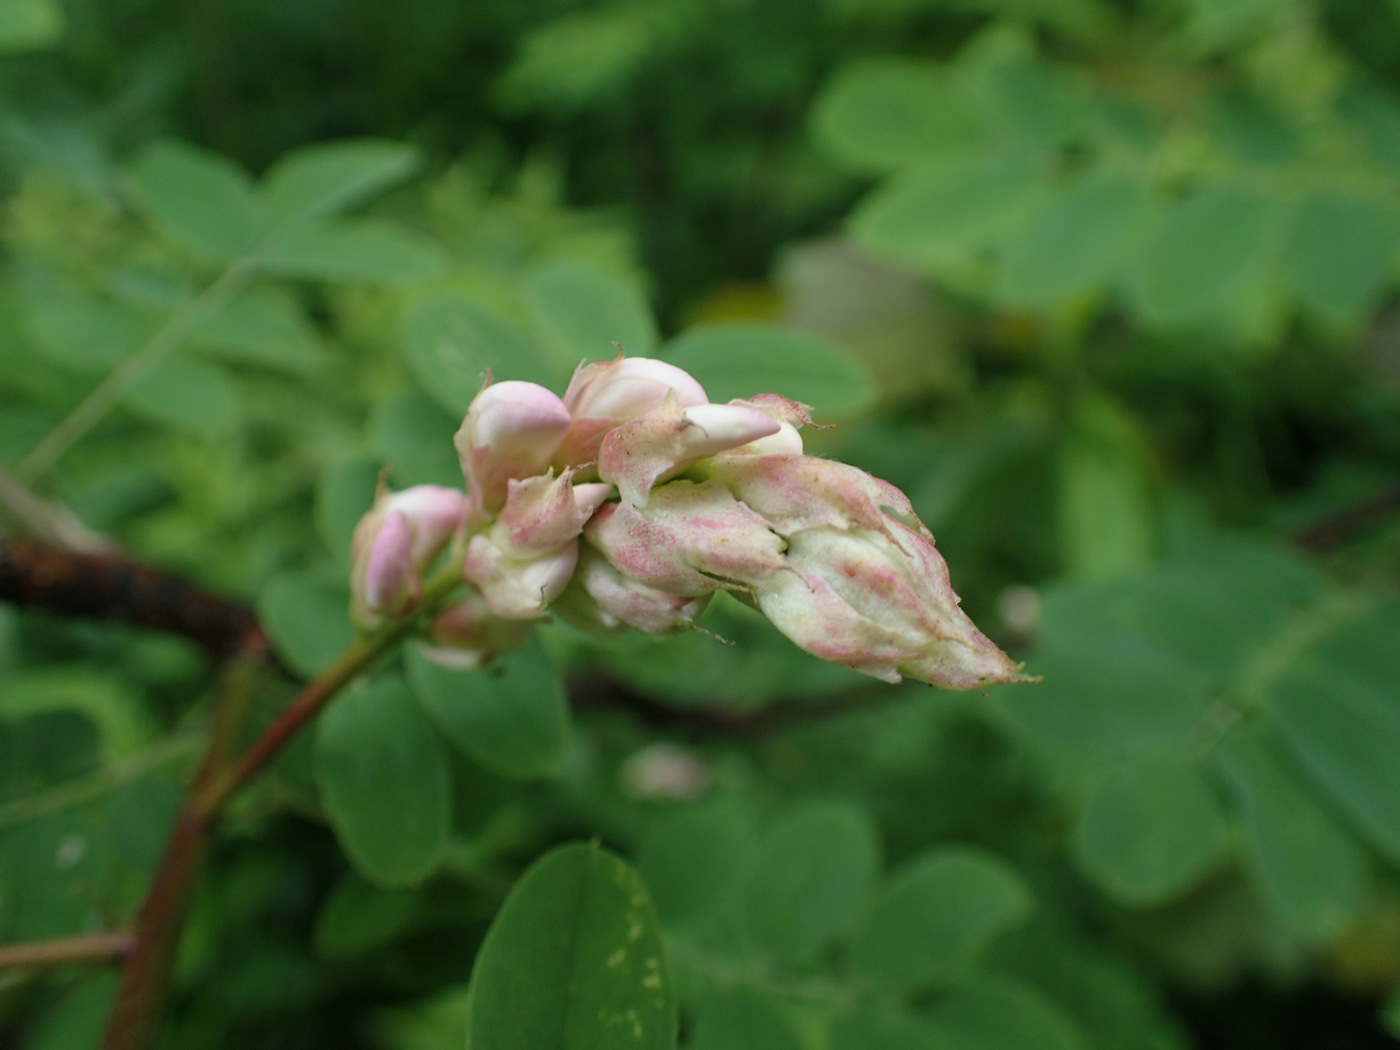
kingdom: Plantae
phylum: Tracheophyta
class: Magnoliopsida
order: Fabales
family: Fabaceae
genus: Robinia
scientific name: Robinia viscosa
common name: Clammy locust
